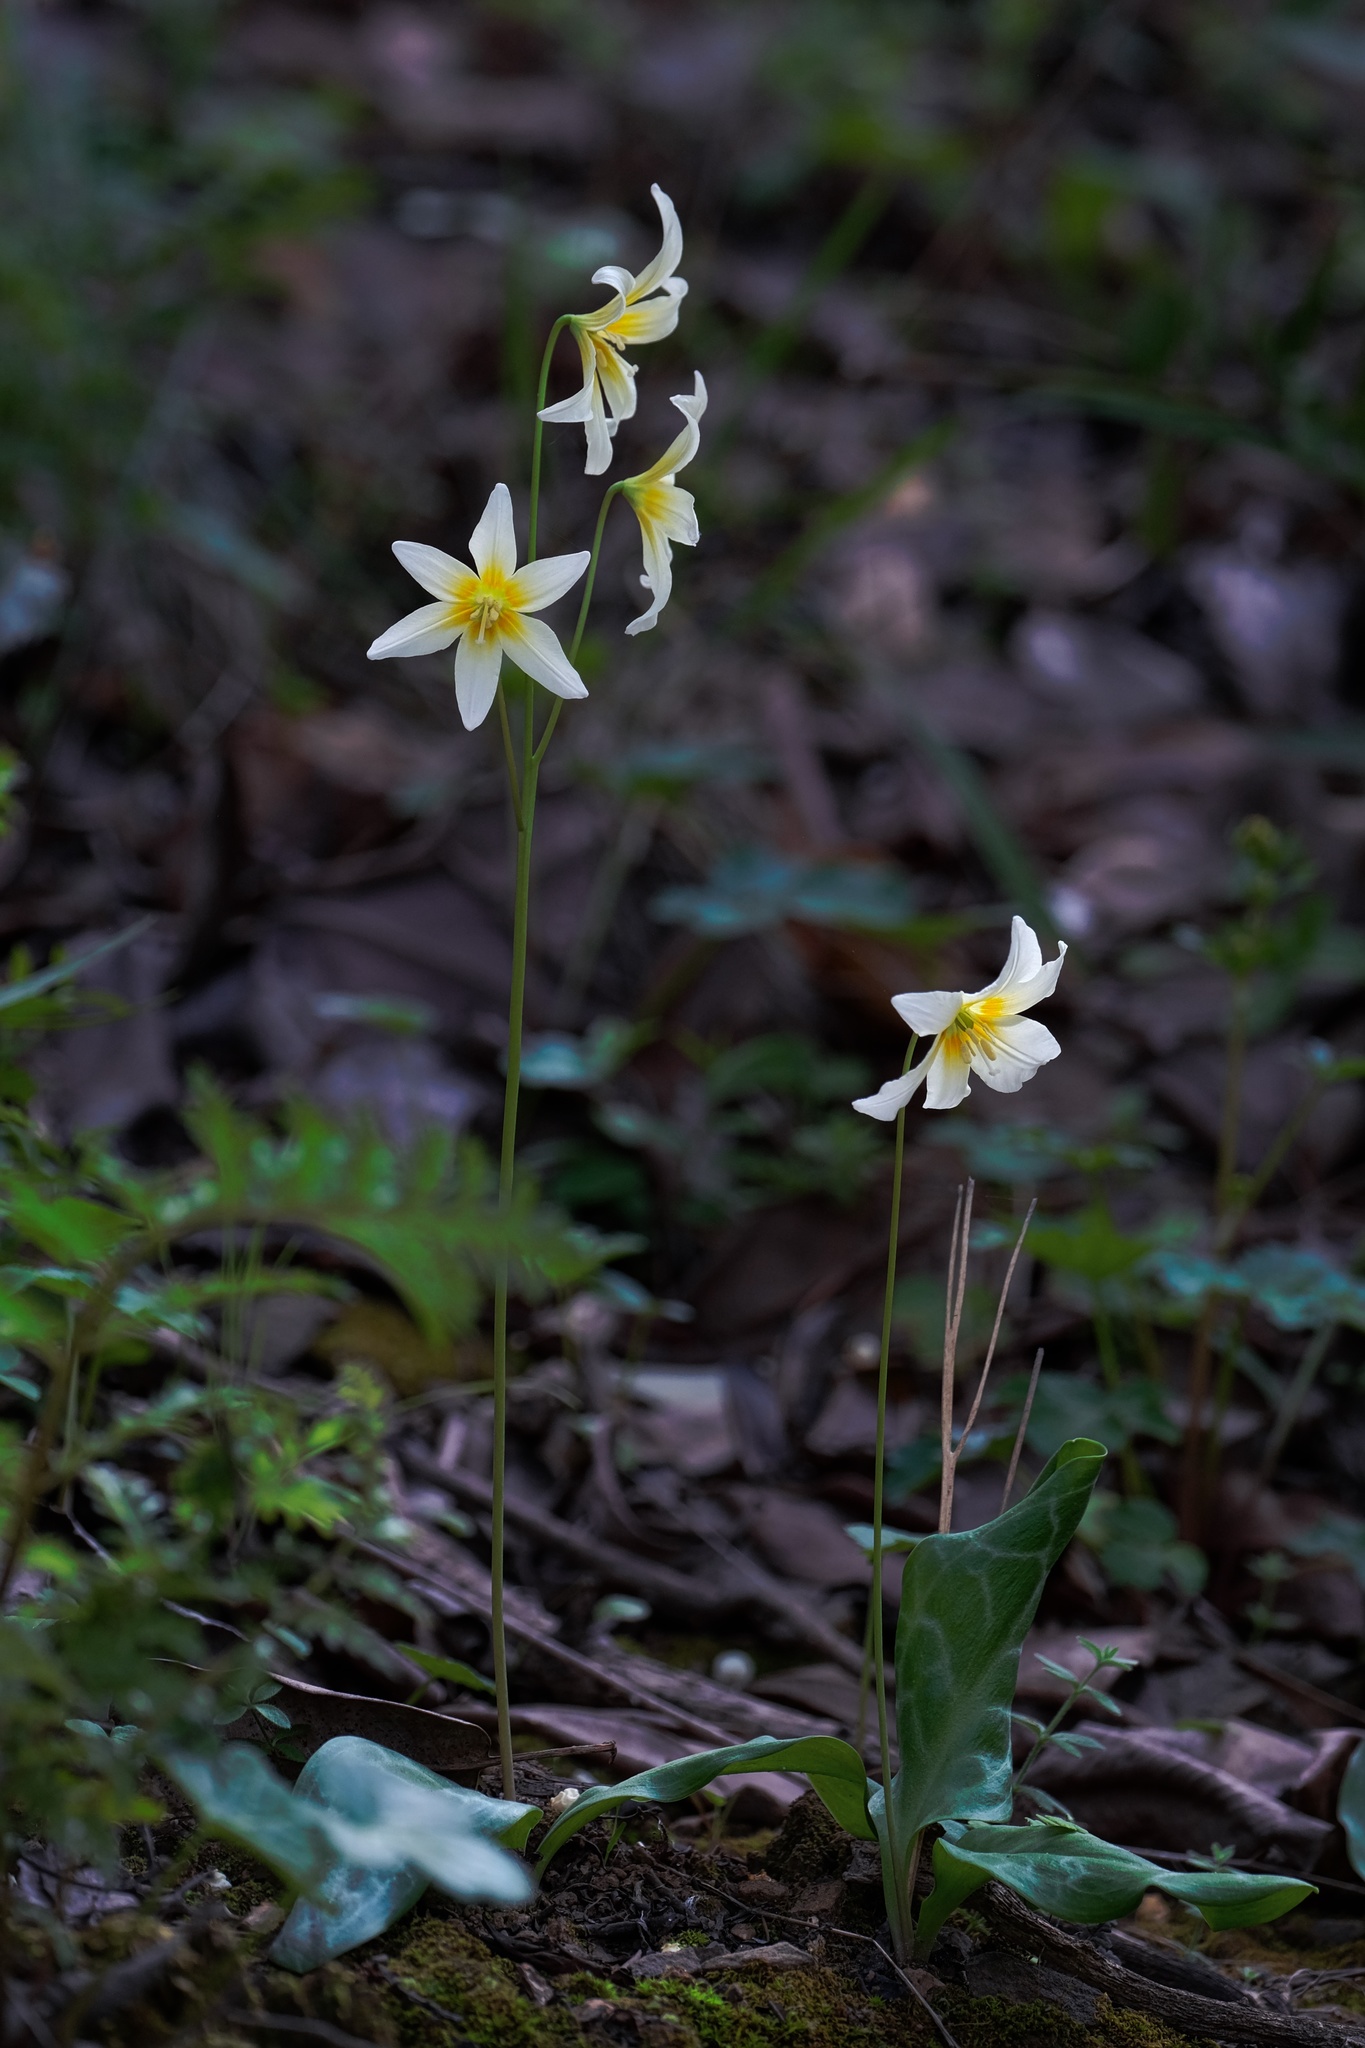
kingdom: Plantae
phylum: Tracheophyta
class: Liliopsida
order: Liliales
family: Liliaceae
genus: Erythronium
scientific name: Erythronium californicum
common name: Fawn-lily
